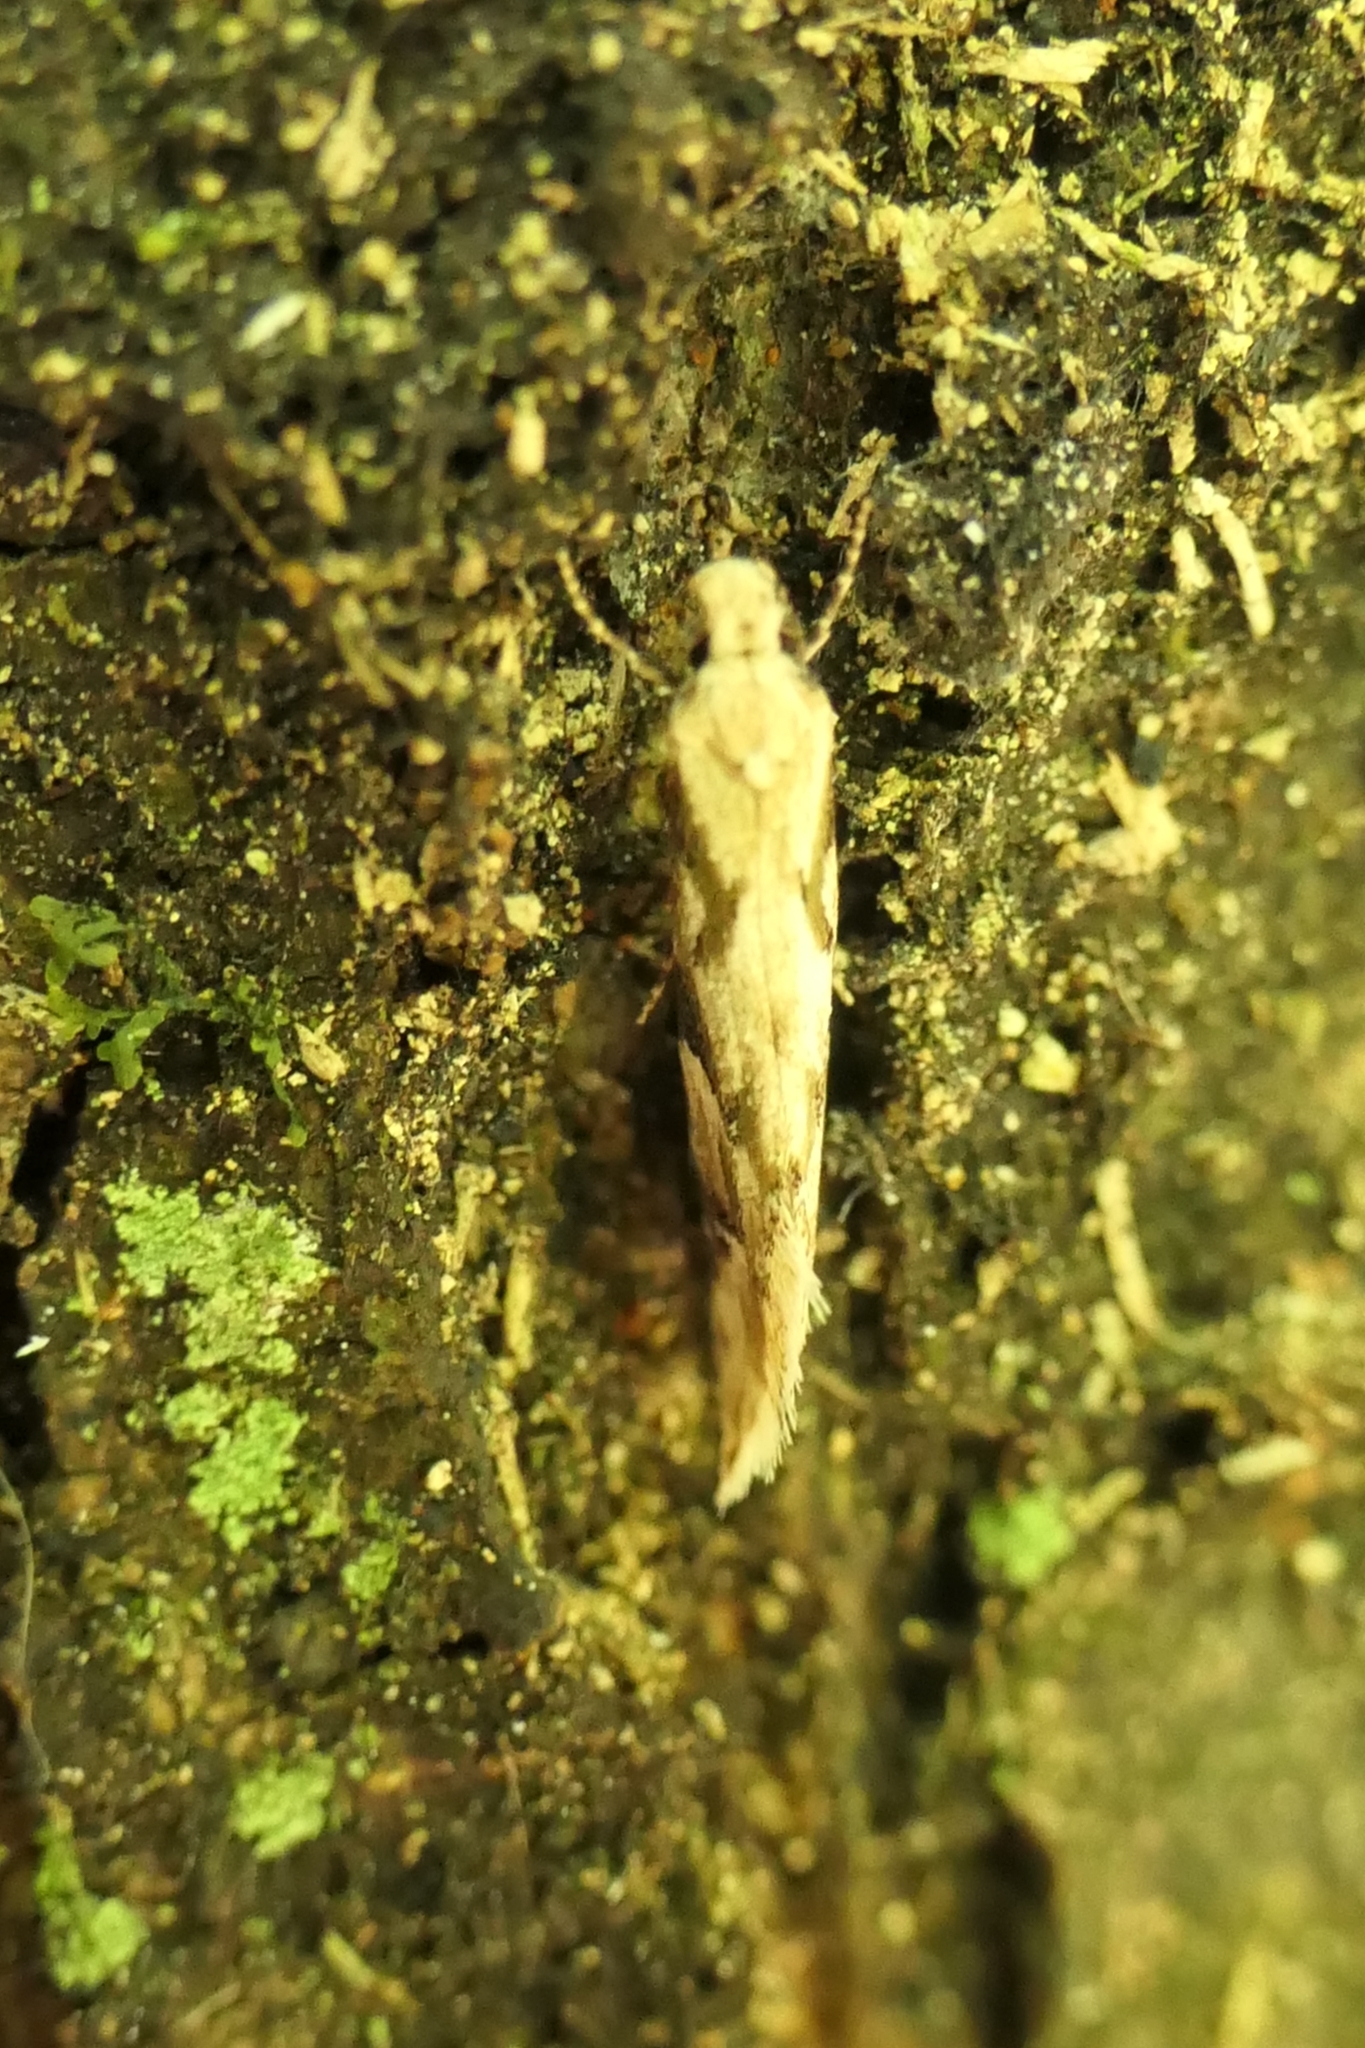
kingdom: Animalia
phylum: Arthropoda
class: Insecta
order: Lepidoptera
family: Tineidae
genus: Crypsitricha
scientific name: Crypsitricha mesotypa
